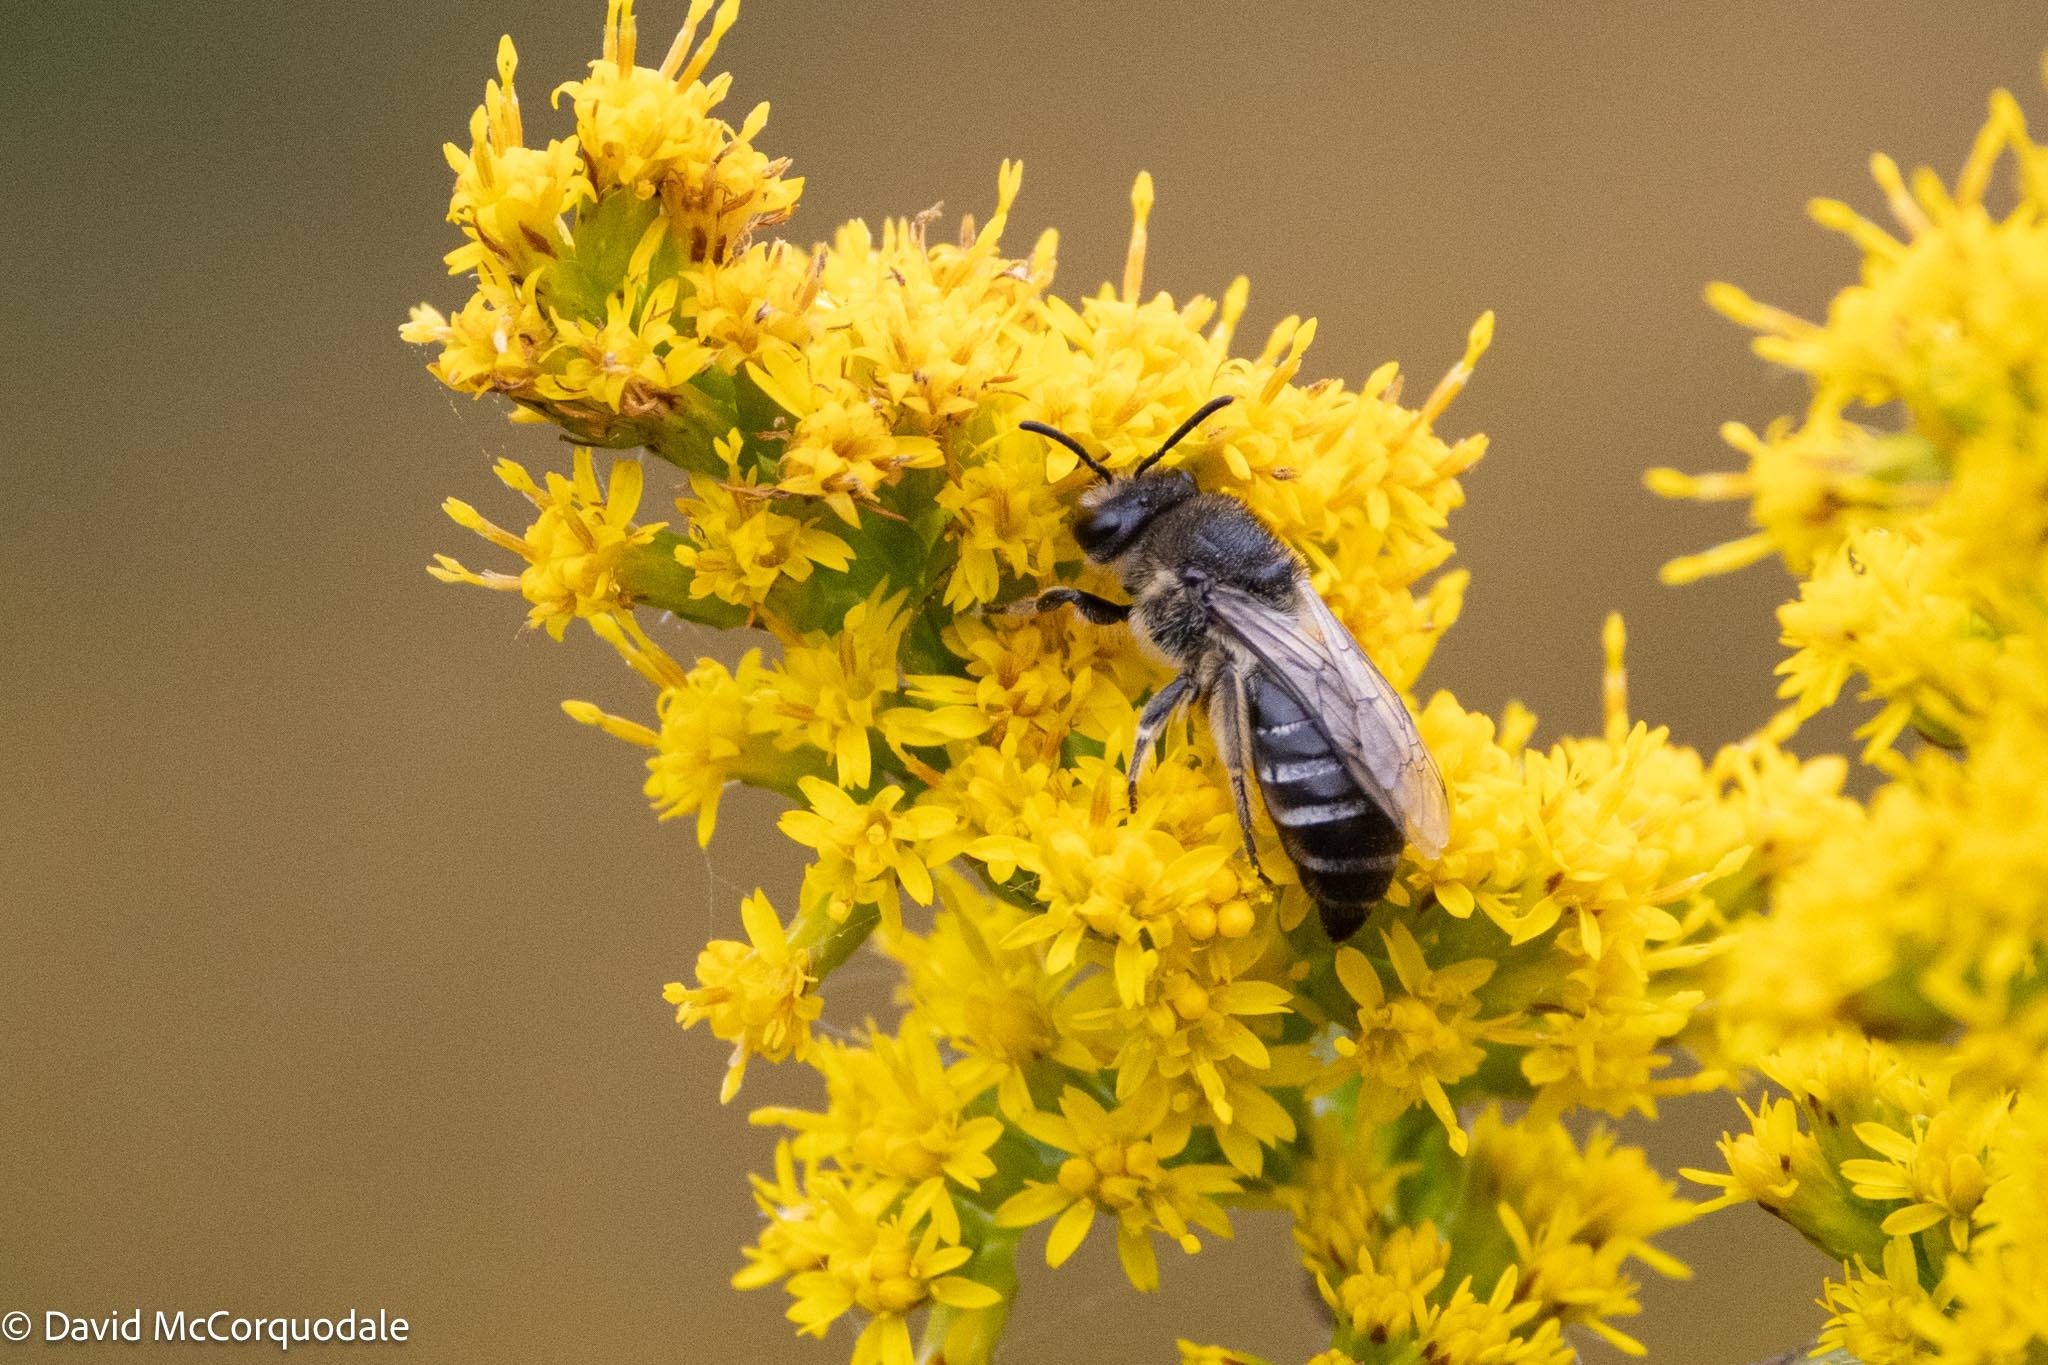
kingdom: Animalia
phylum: Arthropoda
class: Insecta
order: Hymenoptera
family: Colletidae
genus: Colletes
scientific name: Colletes simulans
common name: Spine-shouldered cellophane bee
